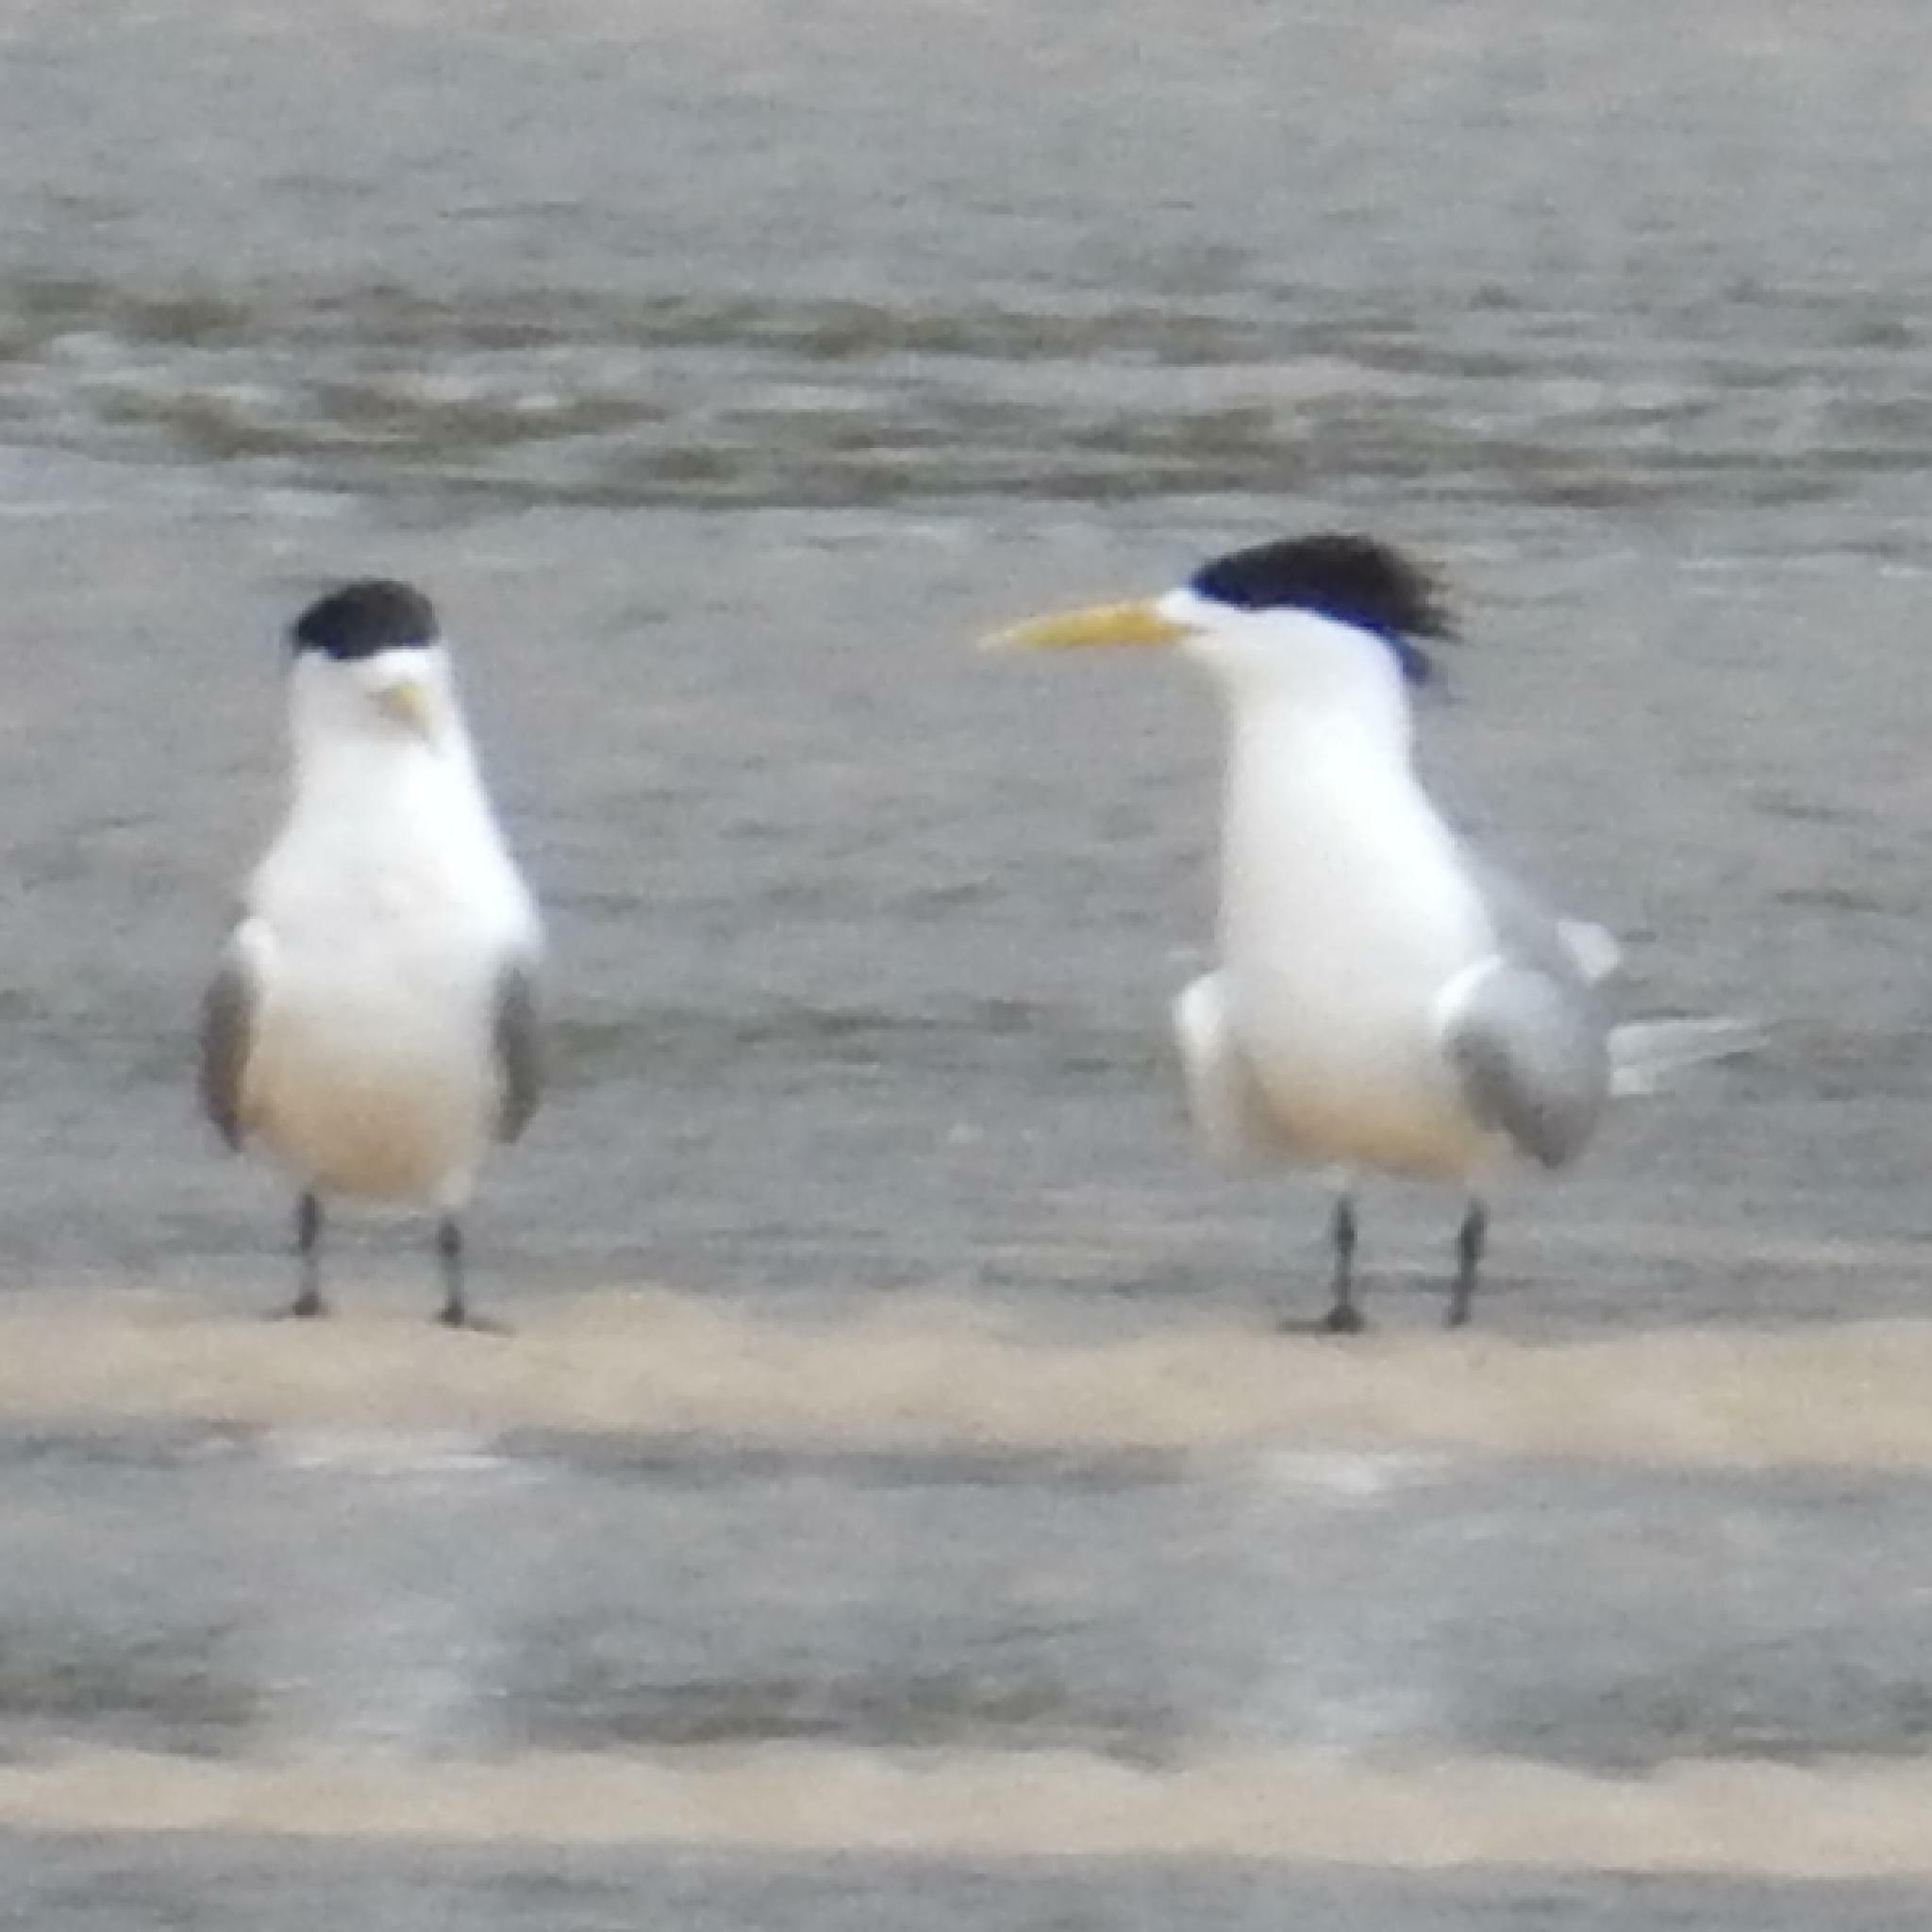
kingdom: Animalia
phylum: Chordata
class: Aves
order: Charadriiformes
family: Laridae
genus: Thalasseus
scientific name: Thalasseus bergii
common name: Greater crested tern
